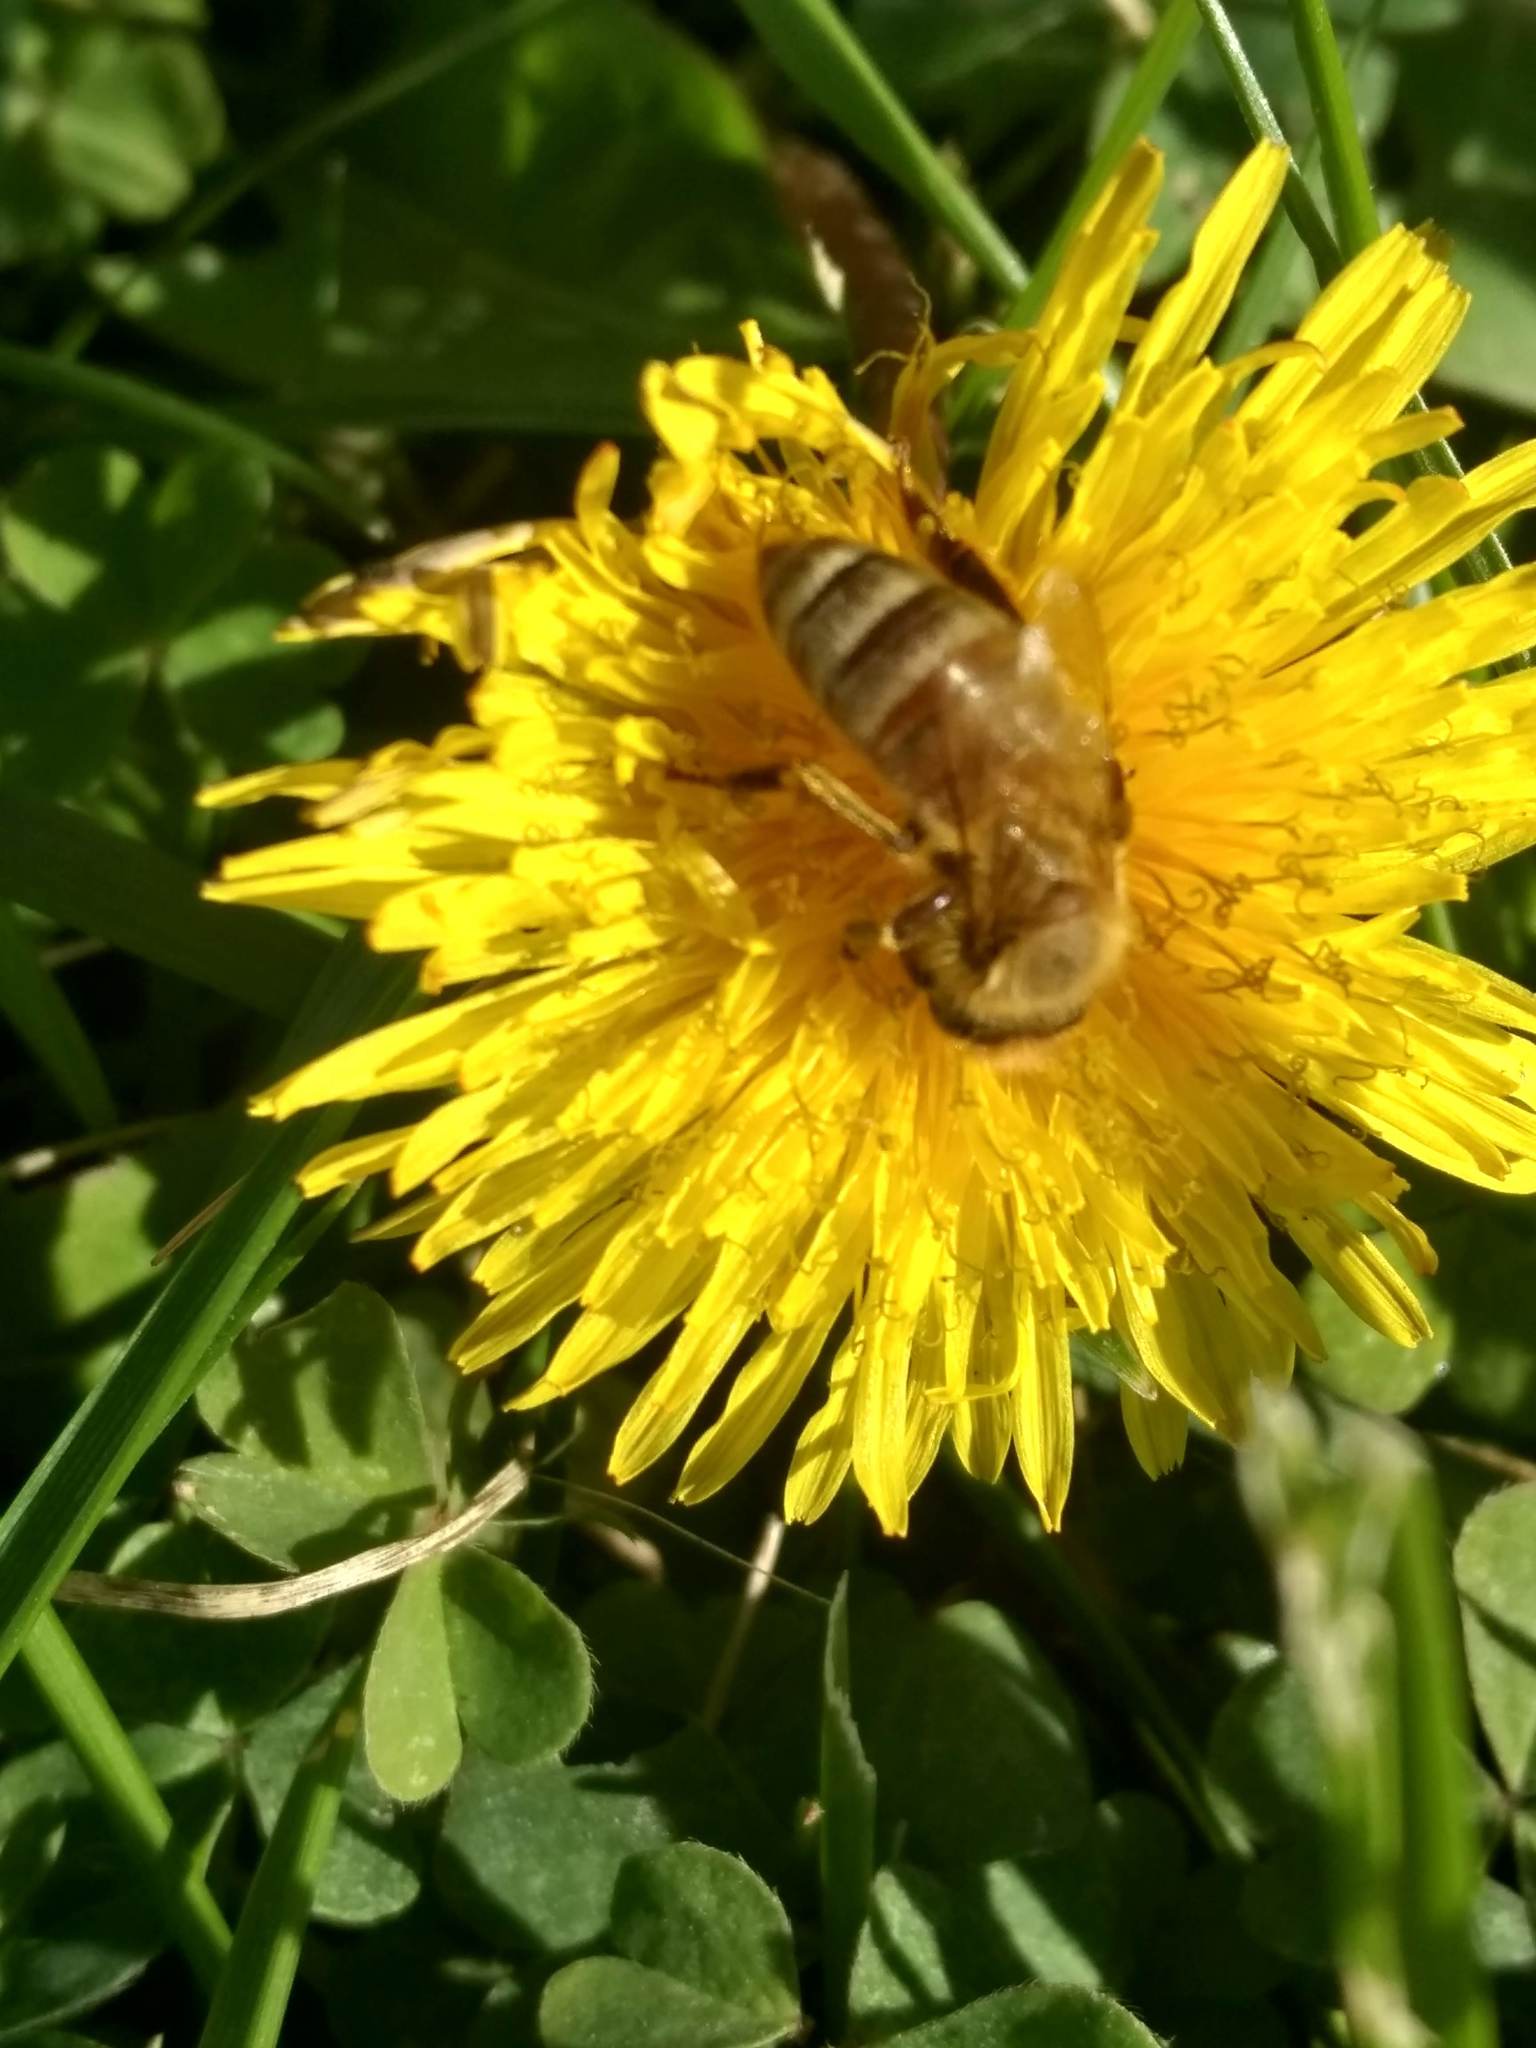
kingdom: Animalia
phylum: Arthropoda
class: Insecta
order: Hymenoptera
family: Apidae
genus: Apis
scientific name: Apis mellifera
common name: Honey bee
